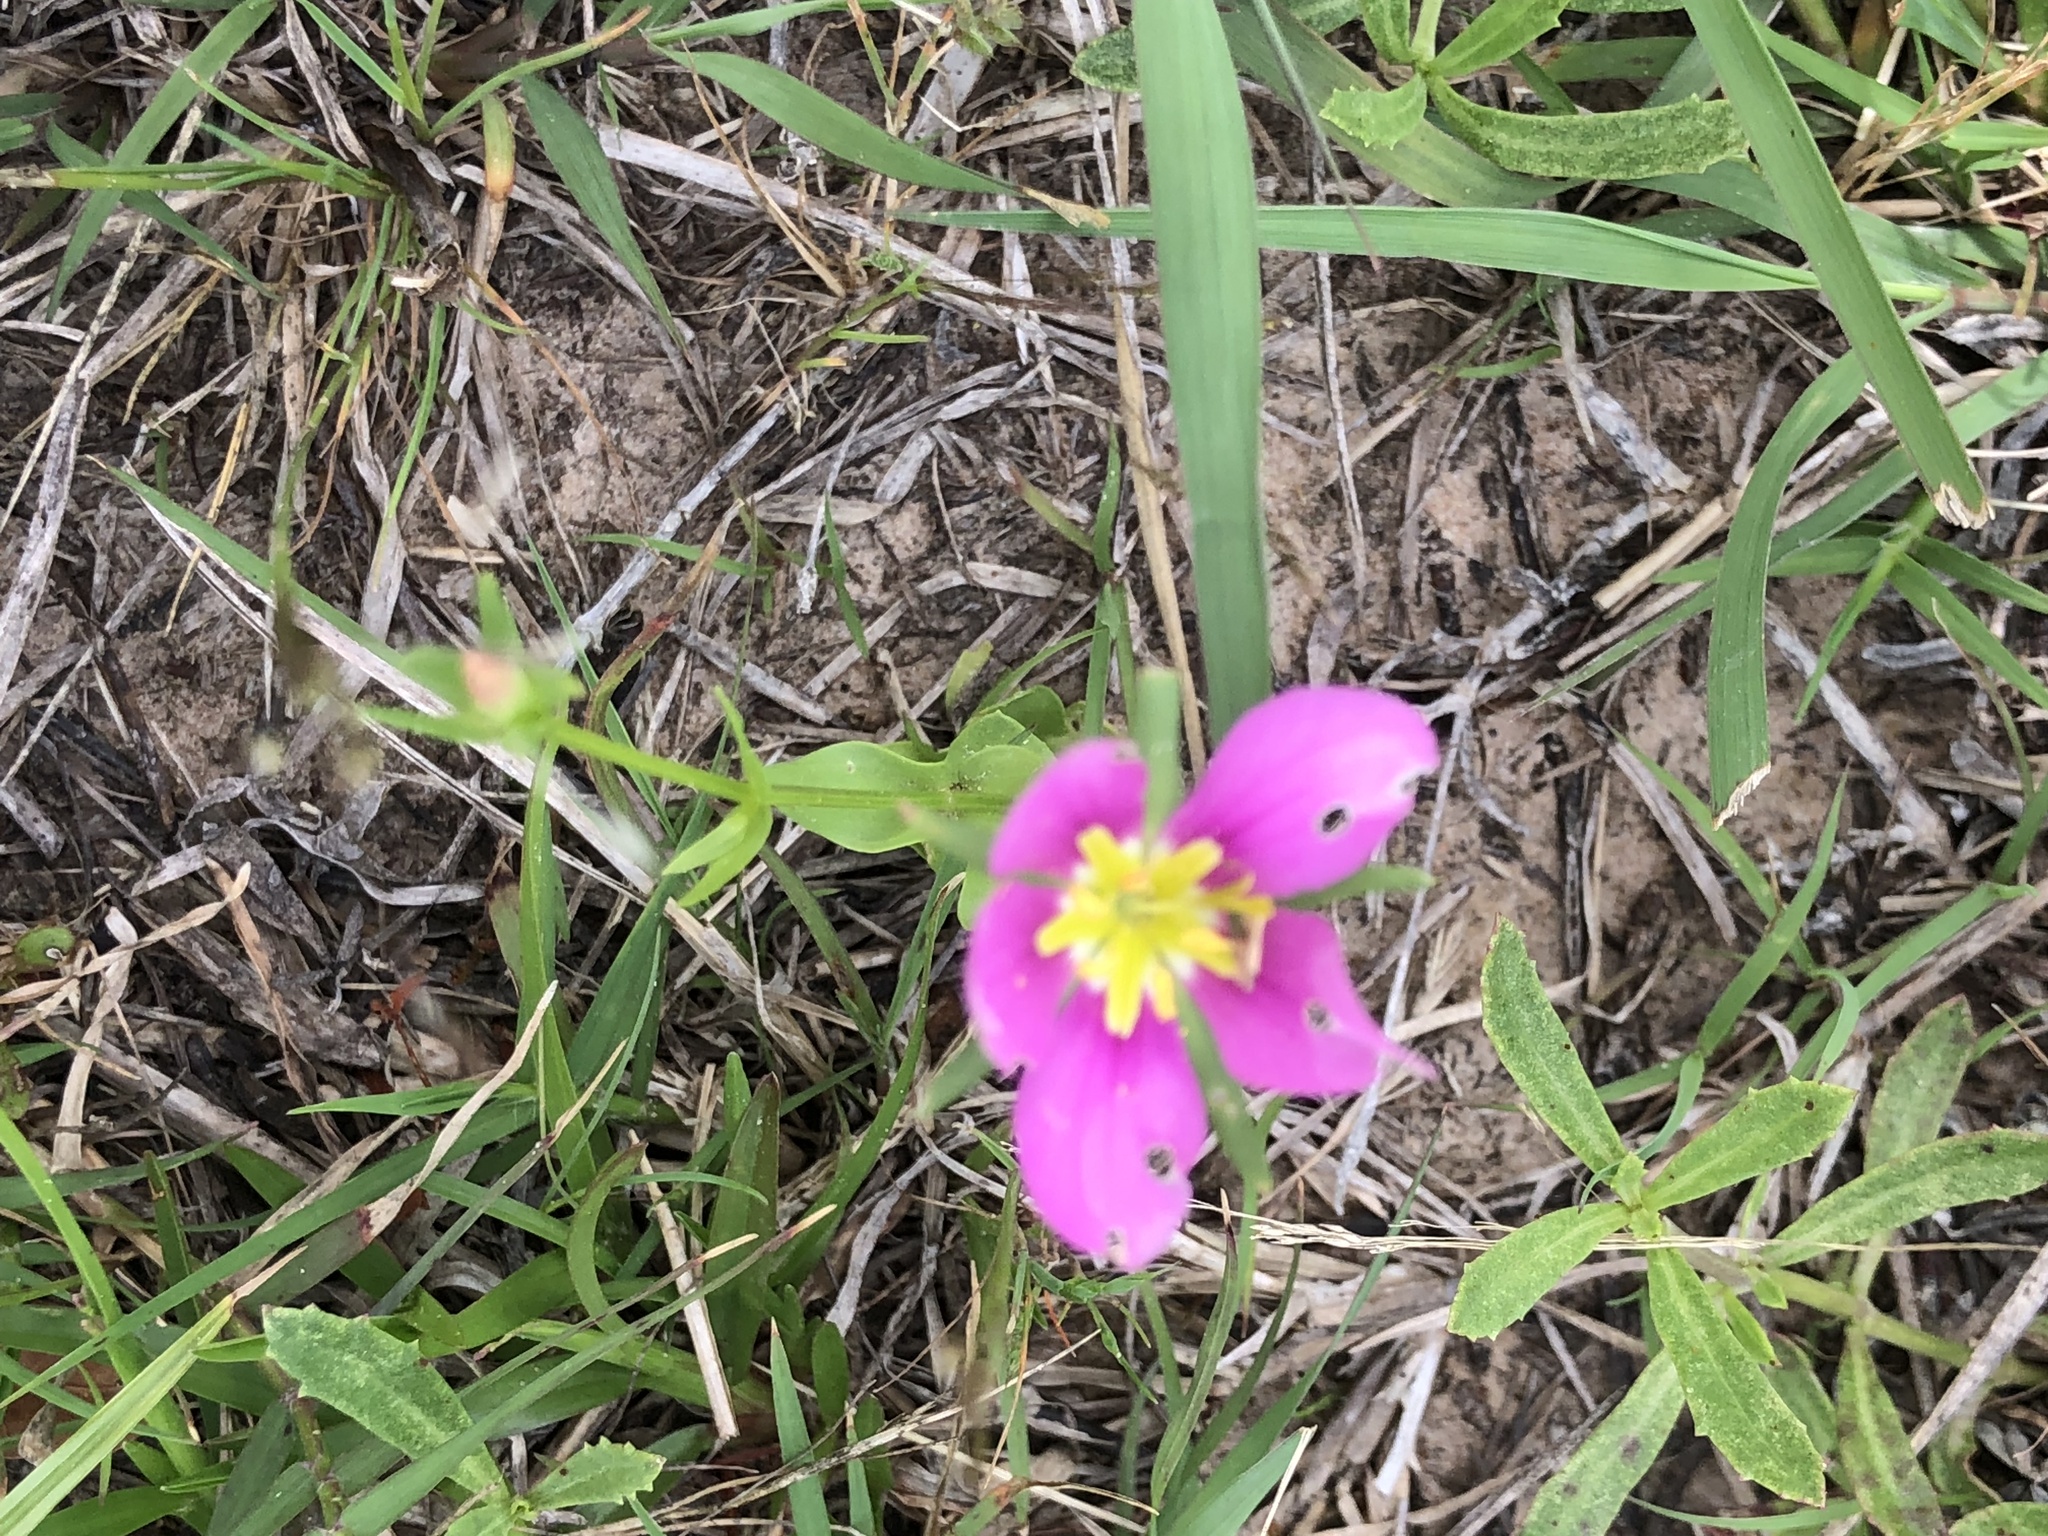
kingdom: Plantae
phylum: Tracheophyta
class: Magnoliopsida
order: Gentianales
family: Gentianaceae
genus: Sabatia
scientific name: Sabatia campestris
